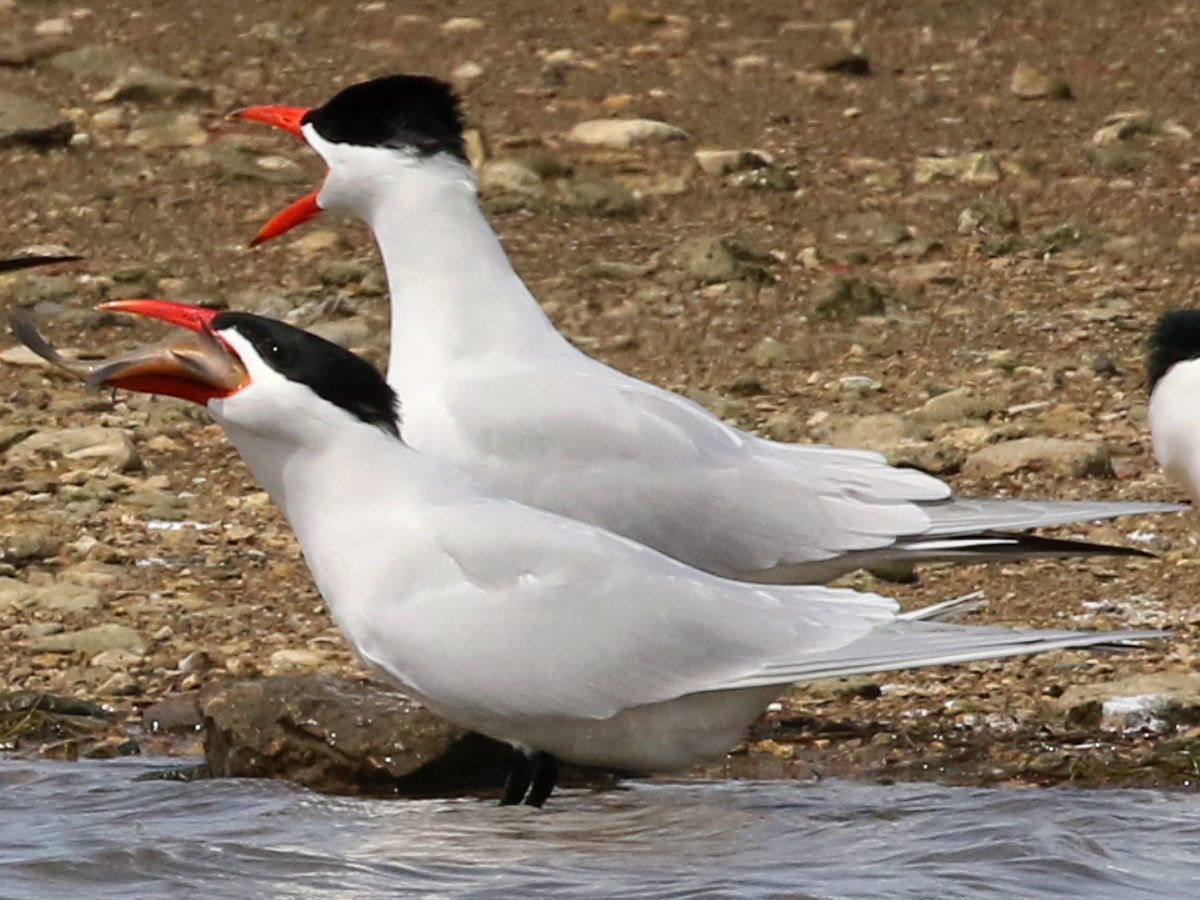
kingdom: Animalia
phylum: Chordata
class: Aves
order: Charadriiformes
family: Laridae
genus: Hydroprogne
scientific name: Hydroprogne caspia
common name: Caspian tern
